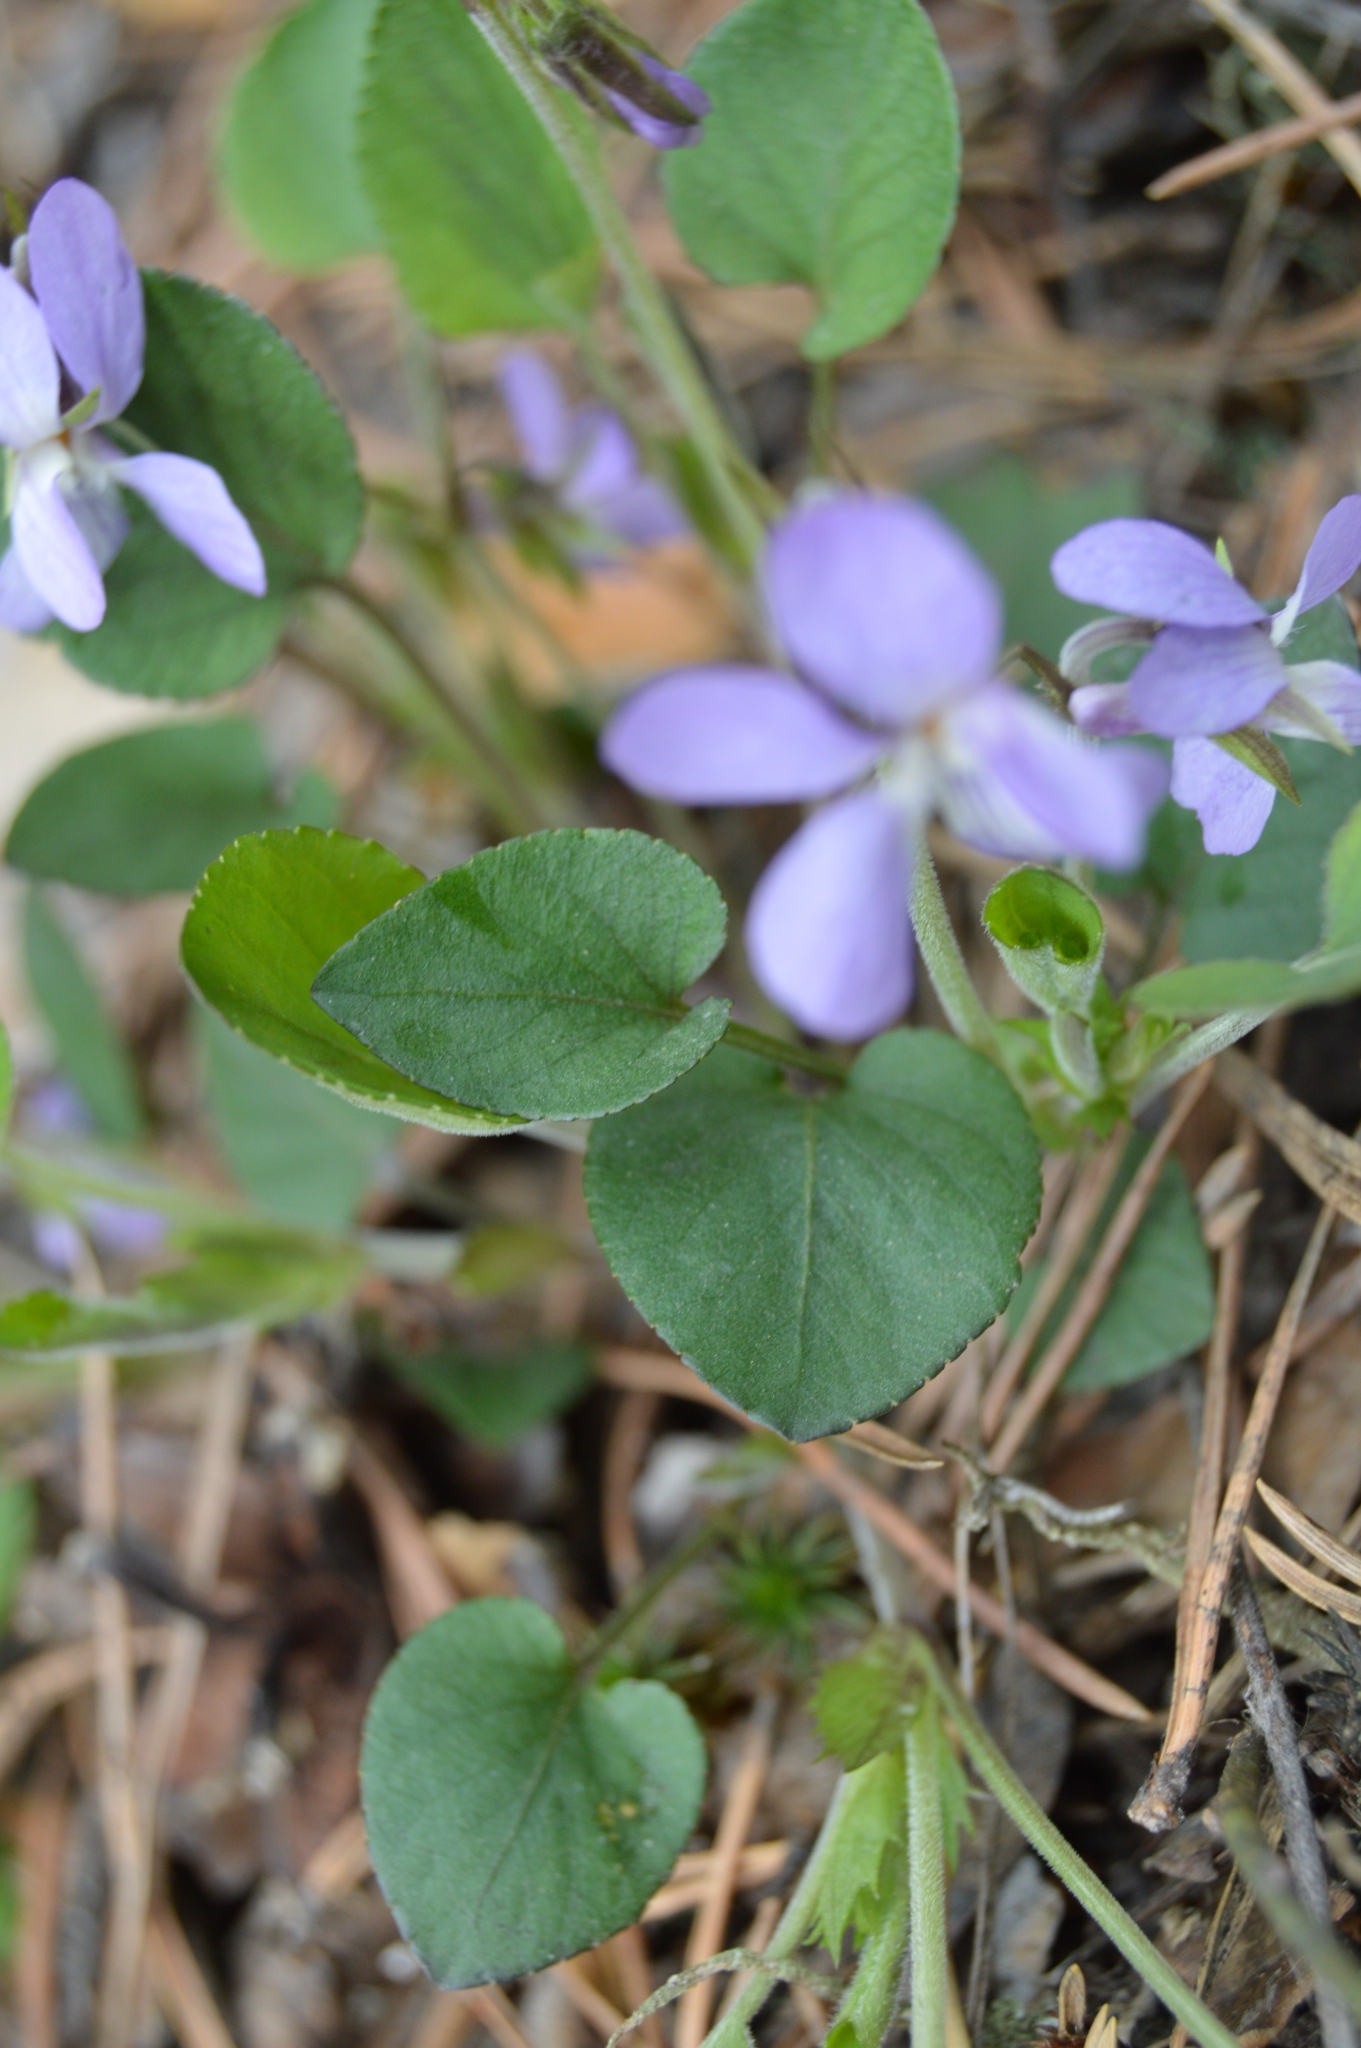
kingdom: Plantae
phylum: Tracheophyta
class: Magnoliopsida
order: Malpighiales
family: Violaceae
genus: Viola
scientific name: Viola rupestris
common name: Teesdale violet
